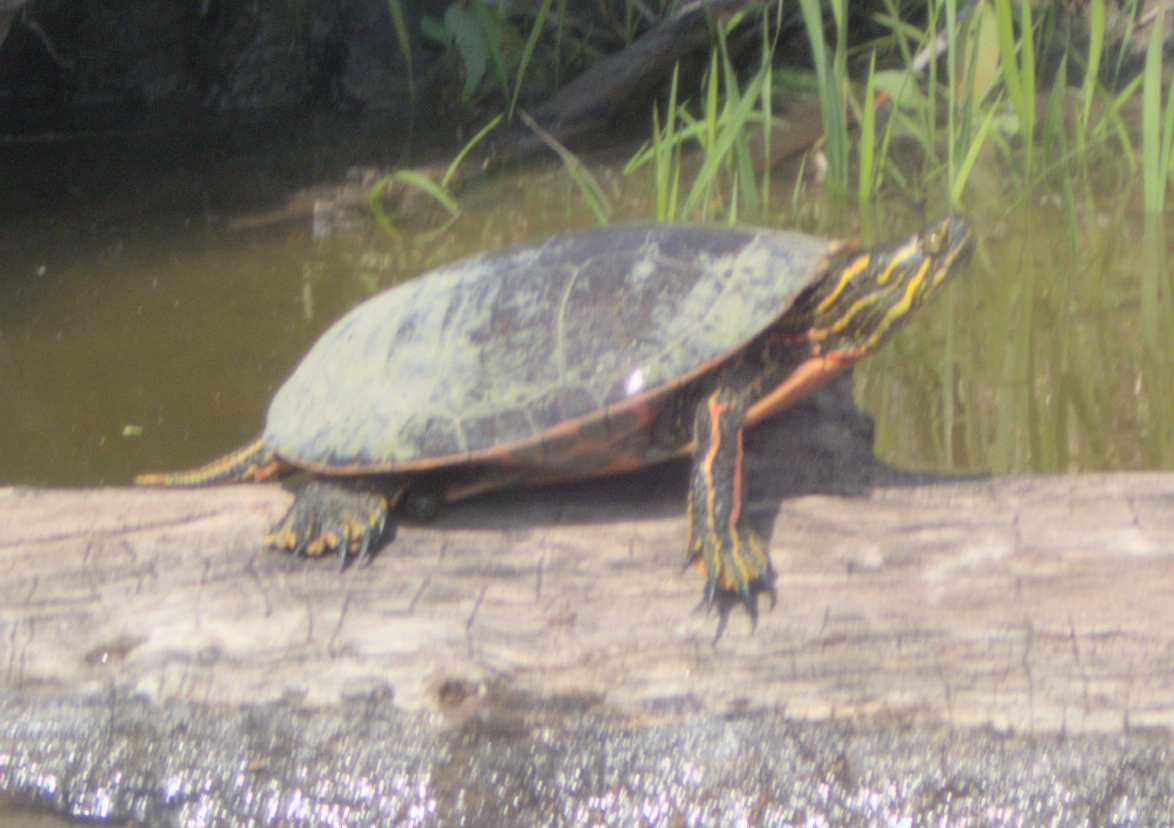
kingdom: Animalia
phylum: Chordata
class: Testudines
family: Emydidae
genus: Chrysemys
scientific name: Chrysemys picta
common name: Painted turtle
